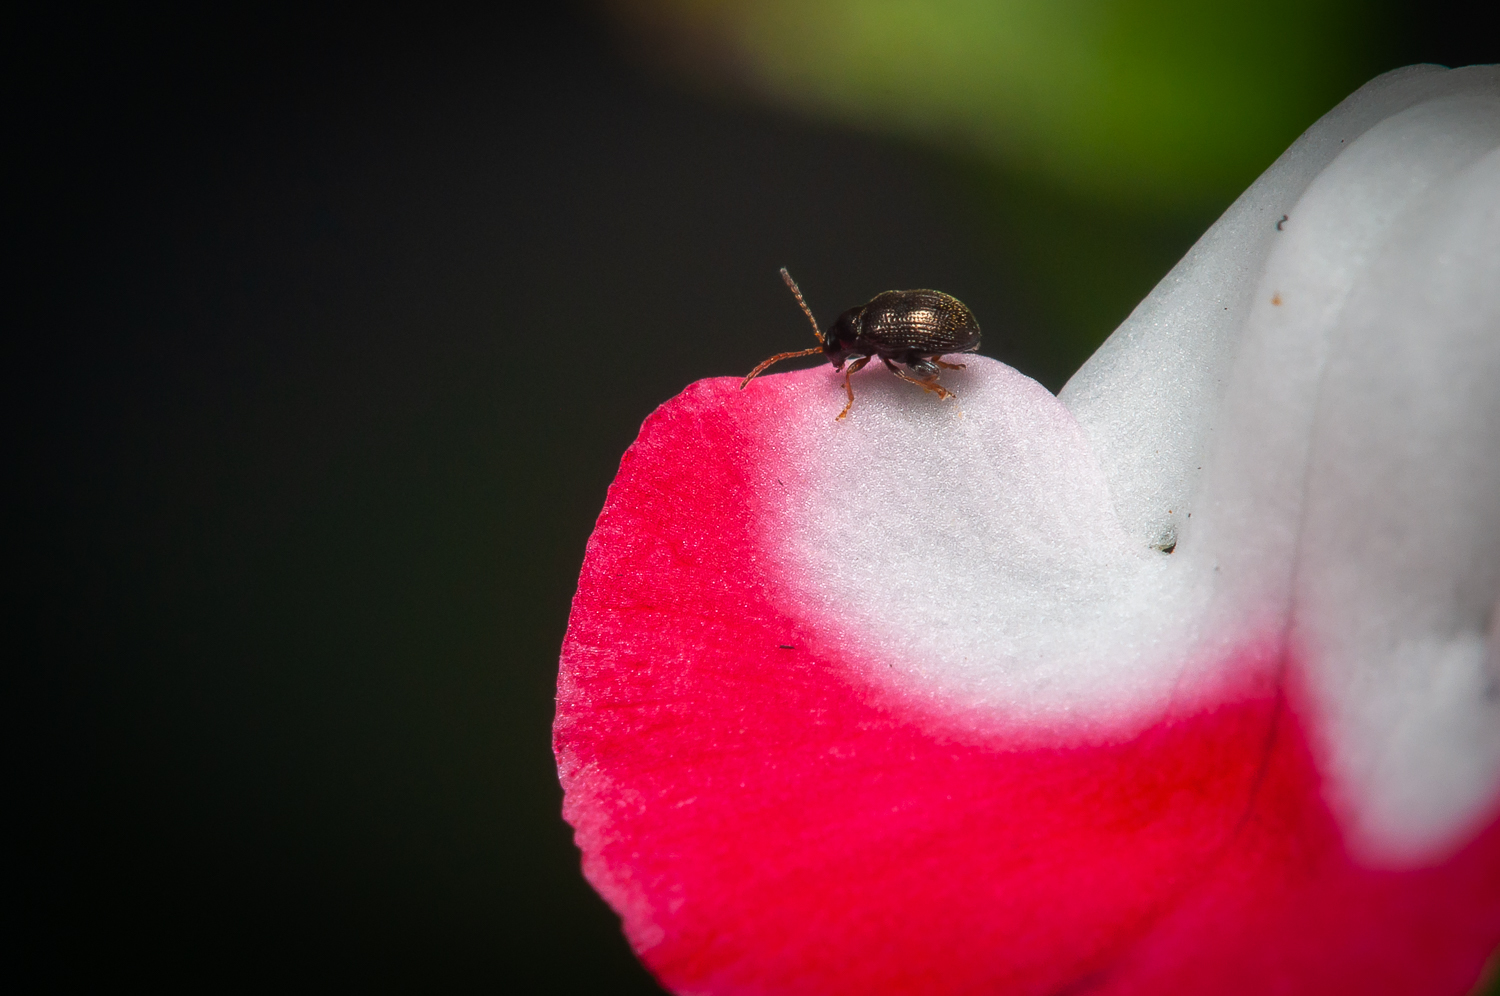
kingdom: Animalia
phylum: Arthropoda
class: Insecta
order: Coleoptera
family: Chrysomelidae
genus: Epitrix
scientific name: Epitrix
